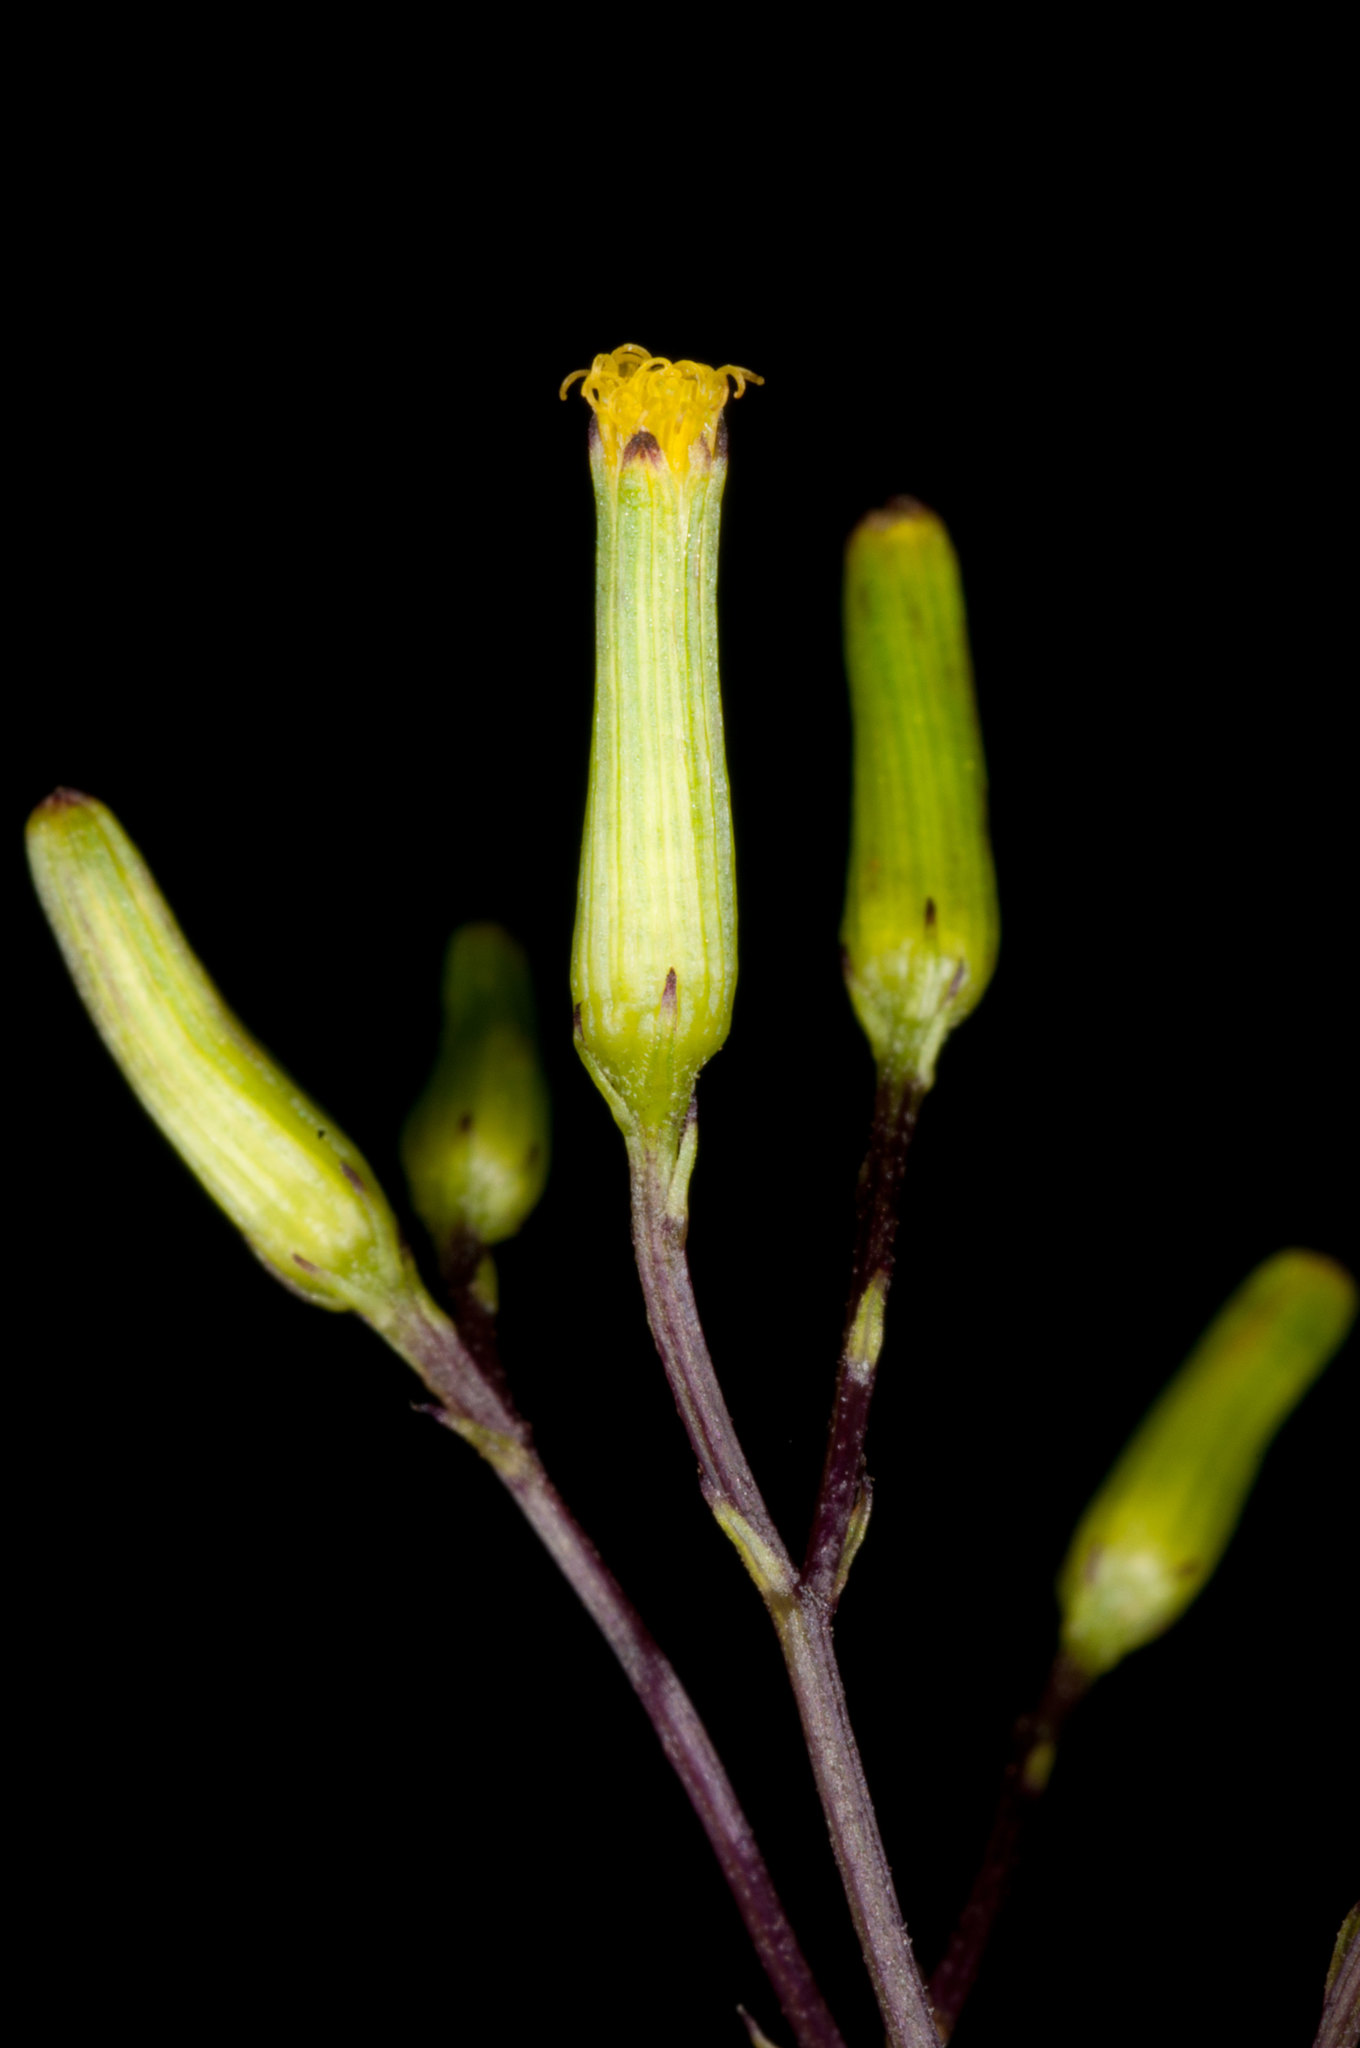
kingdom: Plantae
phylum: Tracheophyta
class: Magnoliopsida
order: Asterales
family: Asteraceae
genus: Senecio
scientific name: Senecio minimus
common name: Toothed fireweed
